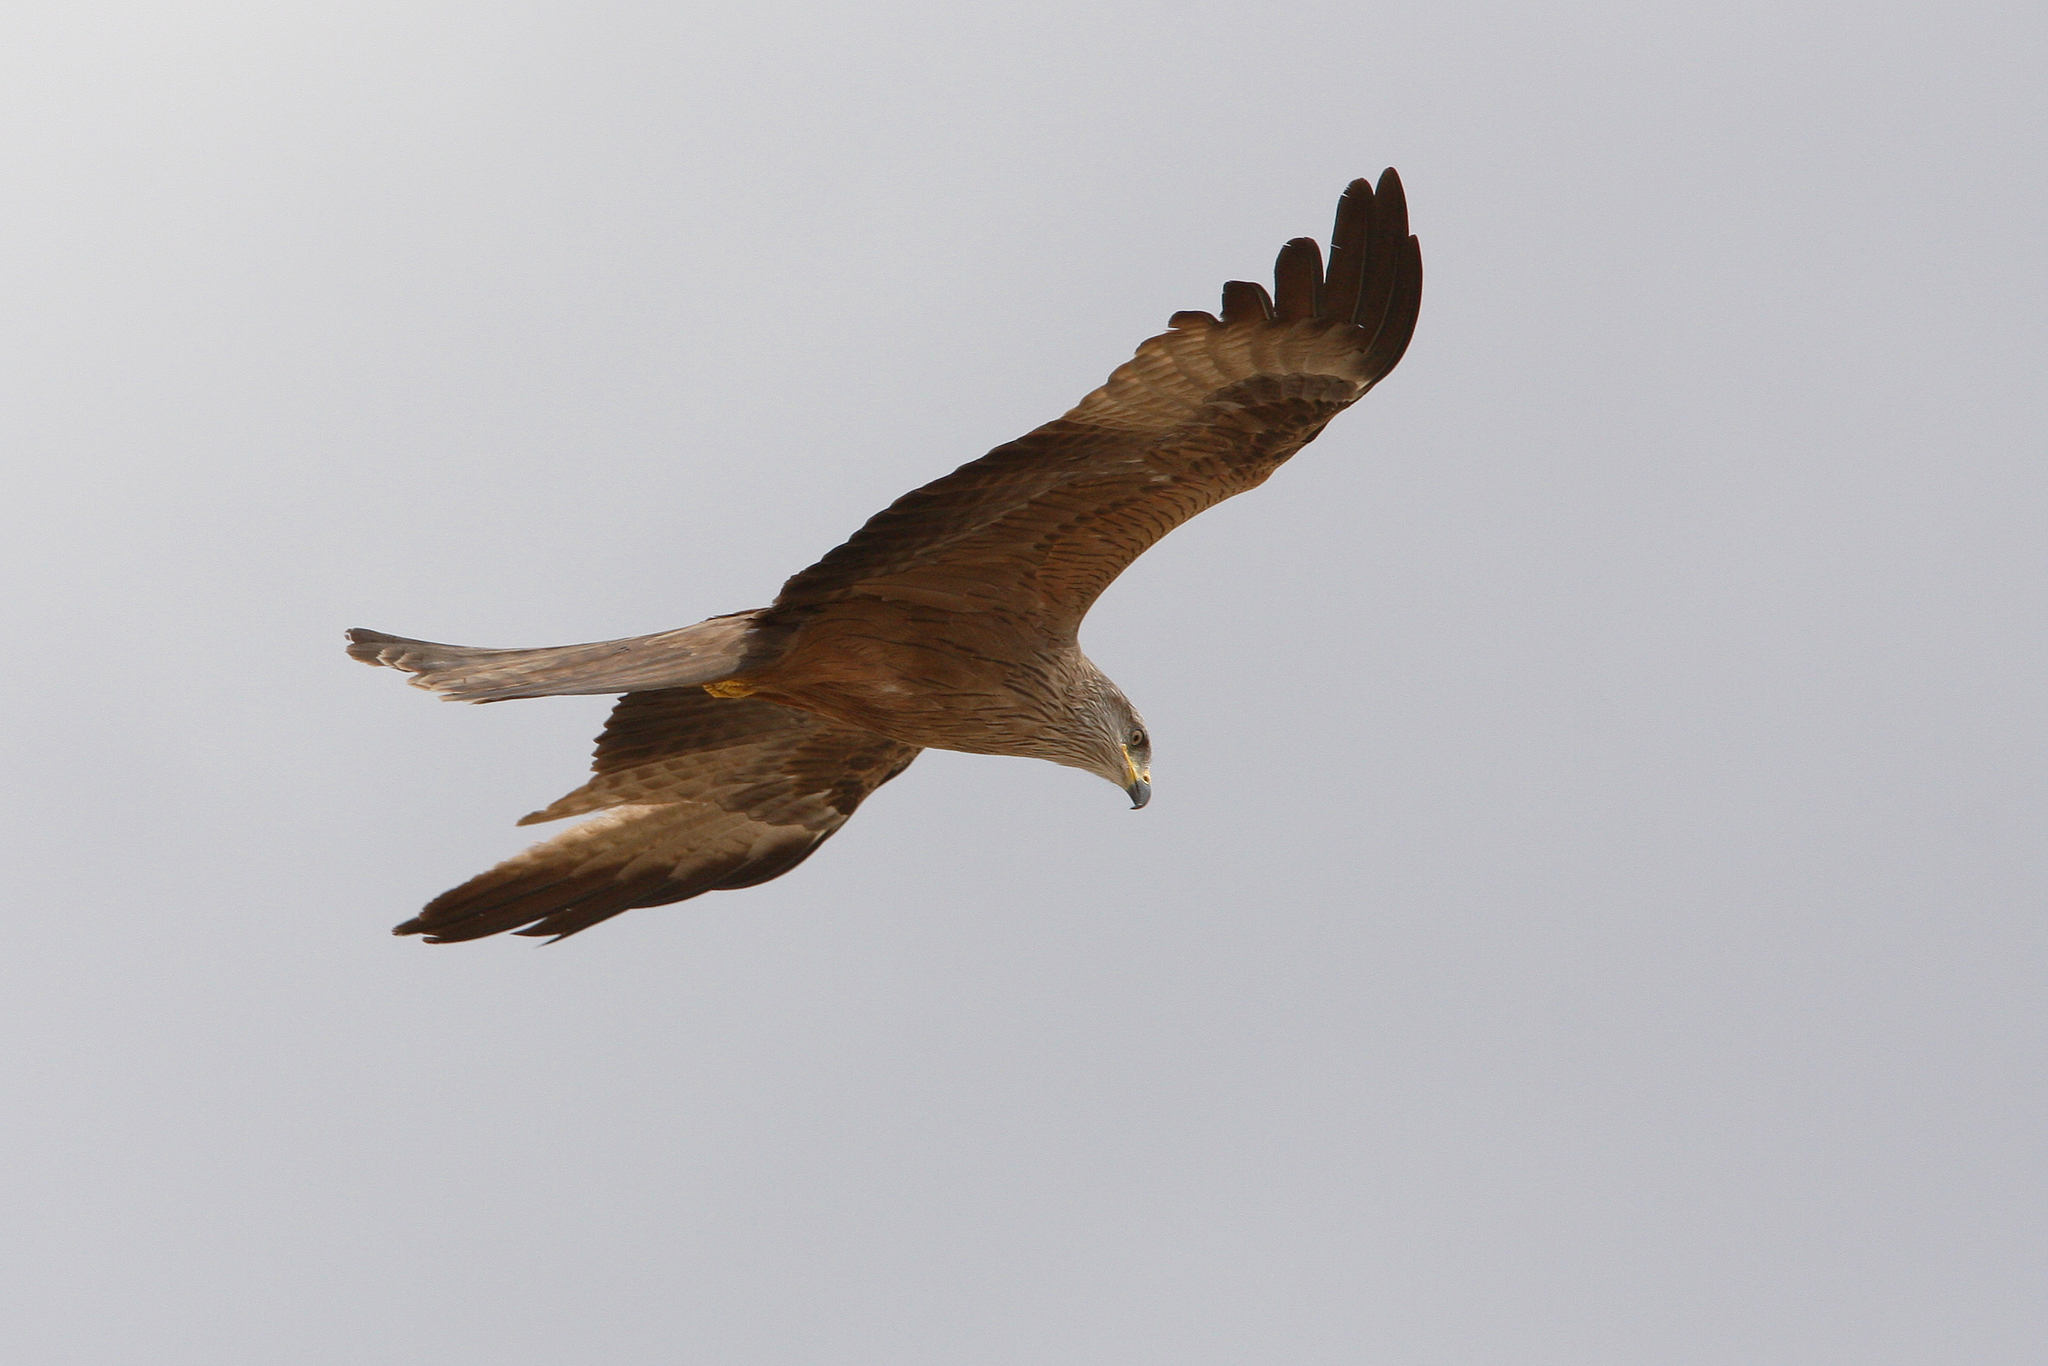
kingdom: Animalia
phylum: Chordata
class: Aves
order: Accipitriformes
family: Accipitridae
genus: Milvus
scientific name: Milvus migrans
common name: Black kite
